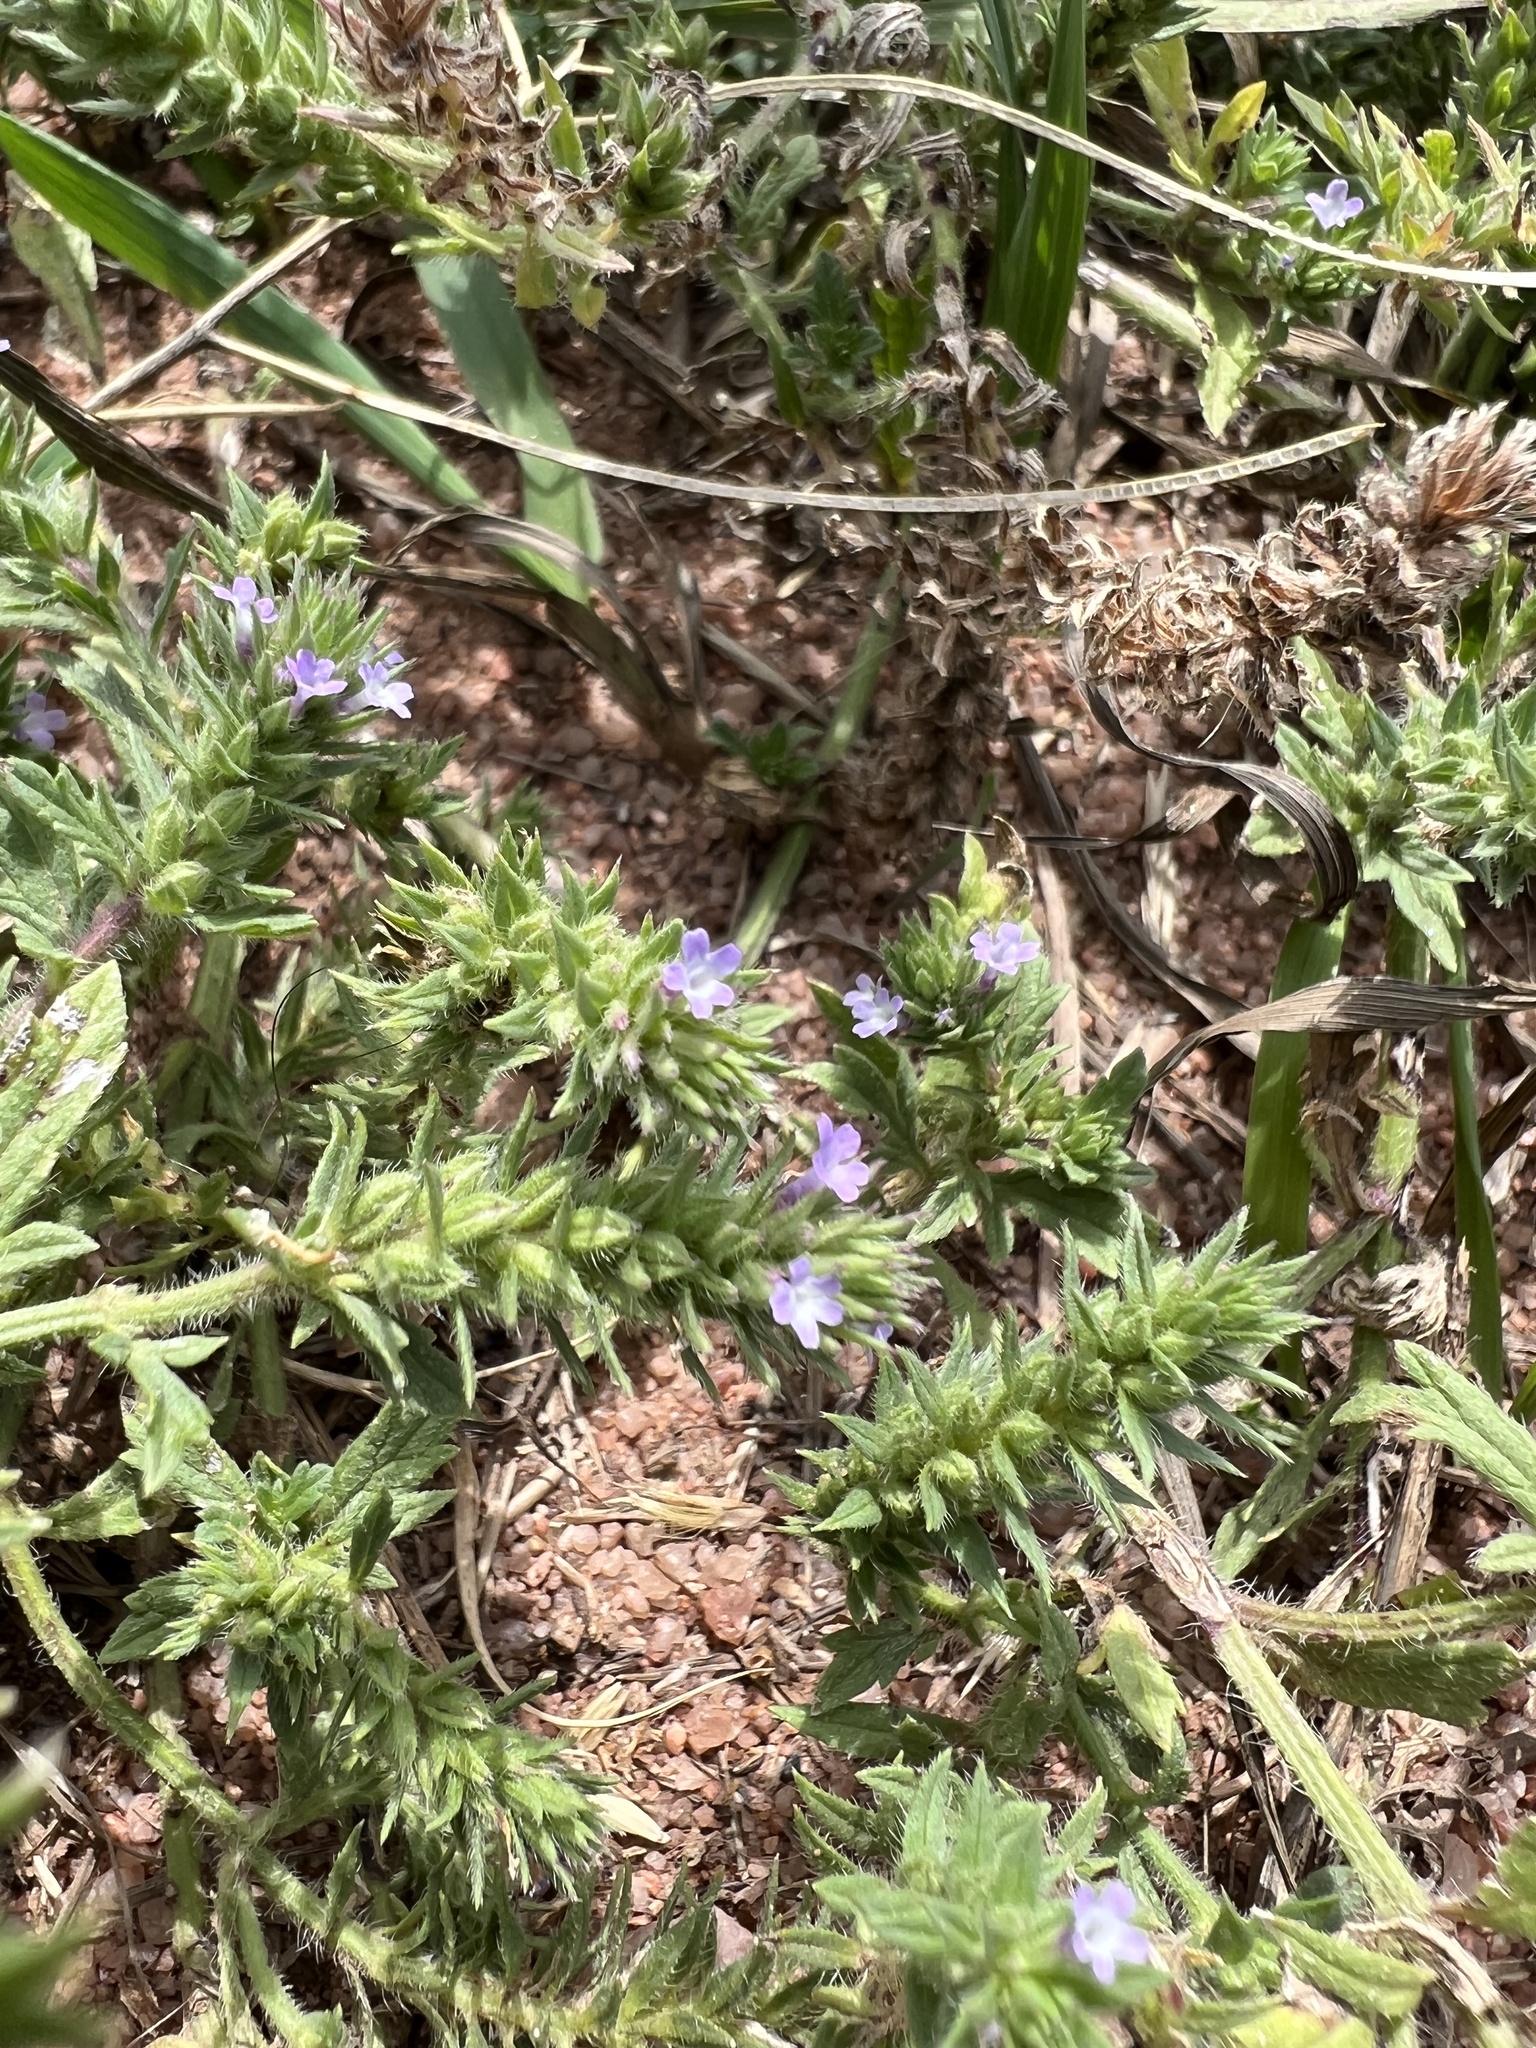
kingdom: Plantae
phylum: Tracheophyta
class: Magnoliopsida
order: Lamiales
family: Verbenaceae
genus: Verbena
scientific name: Verbena bracteata
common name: Bracted vervain
